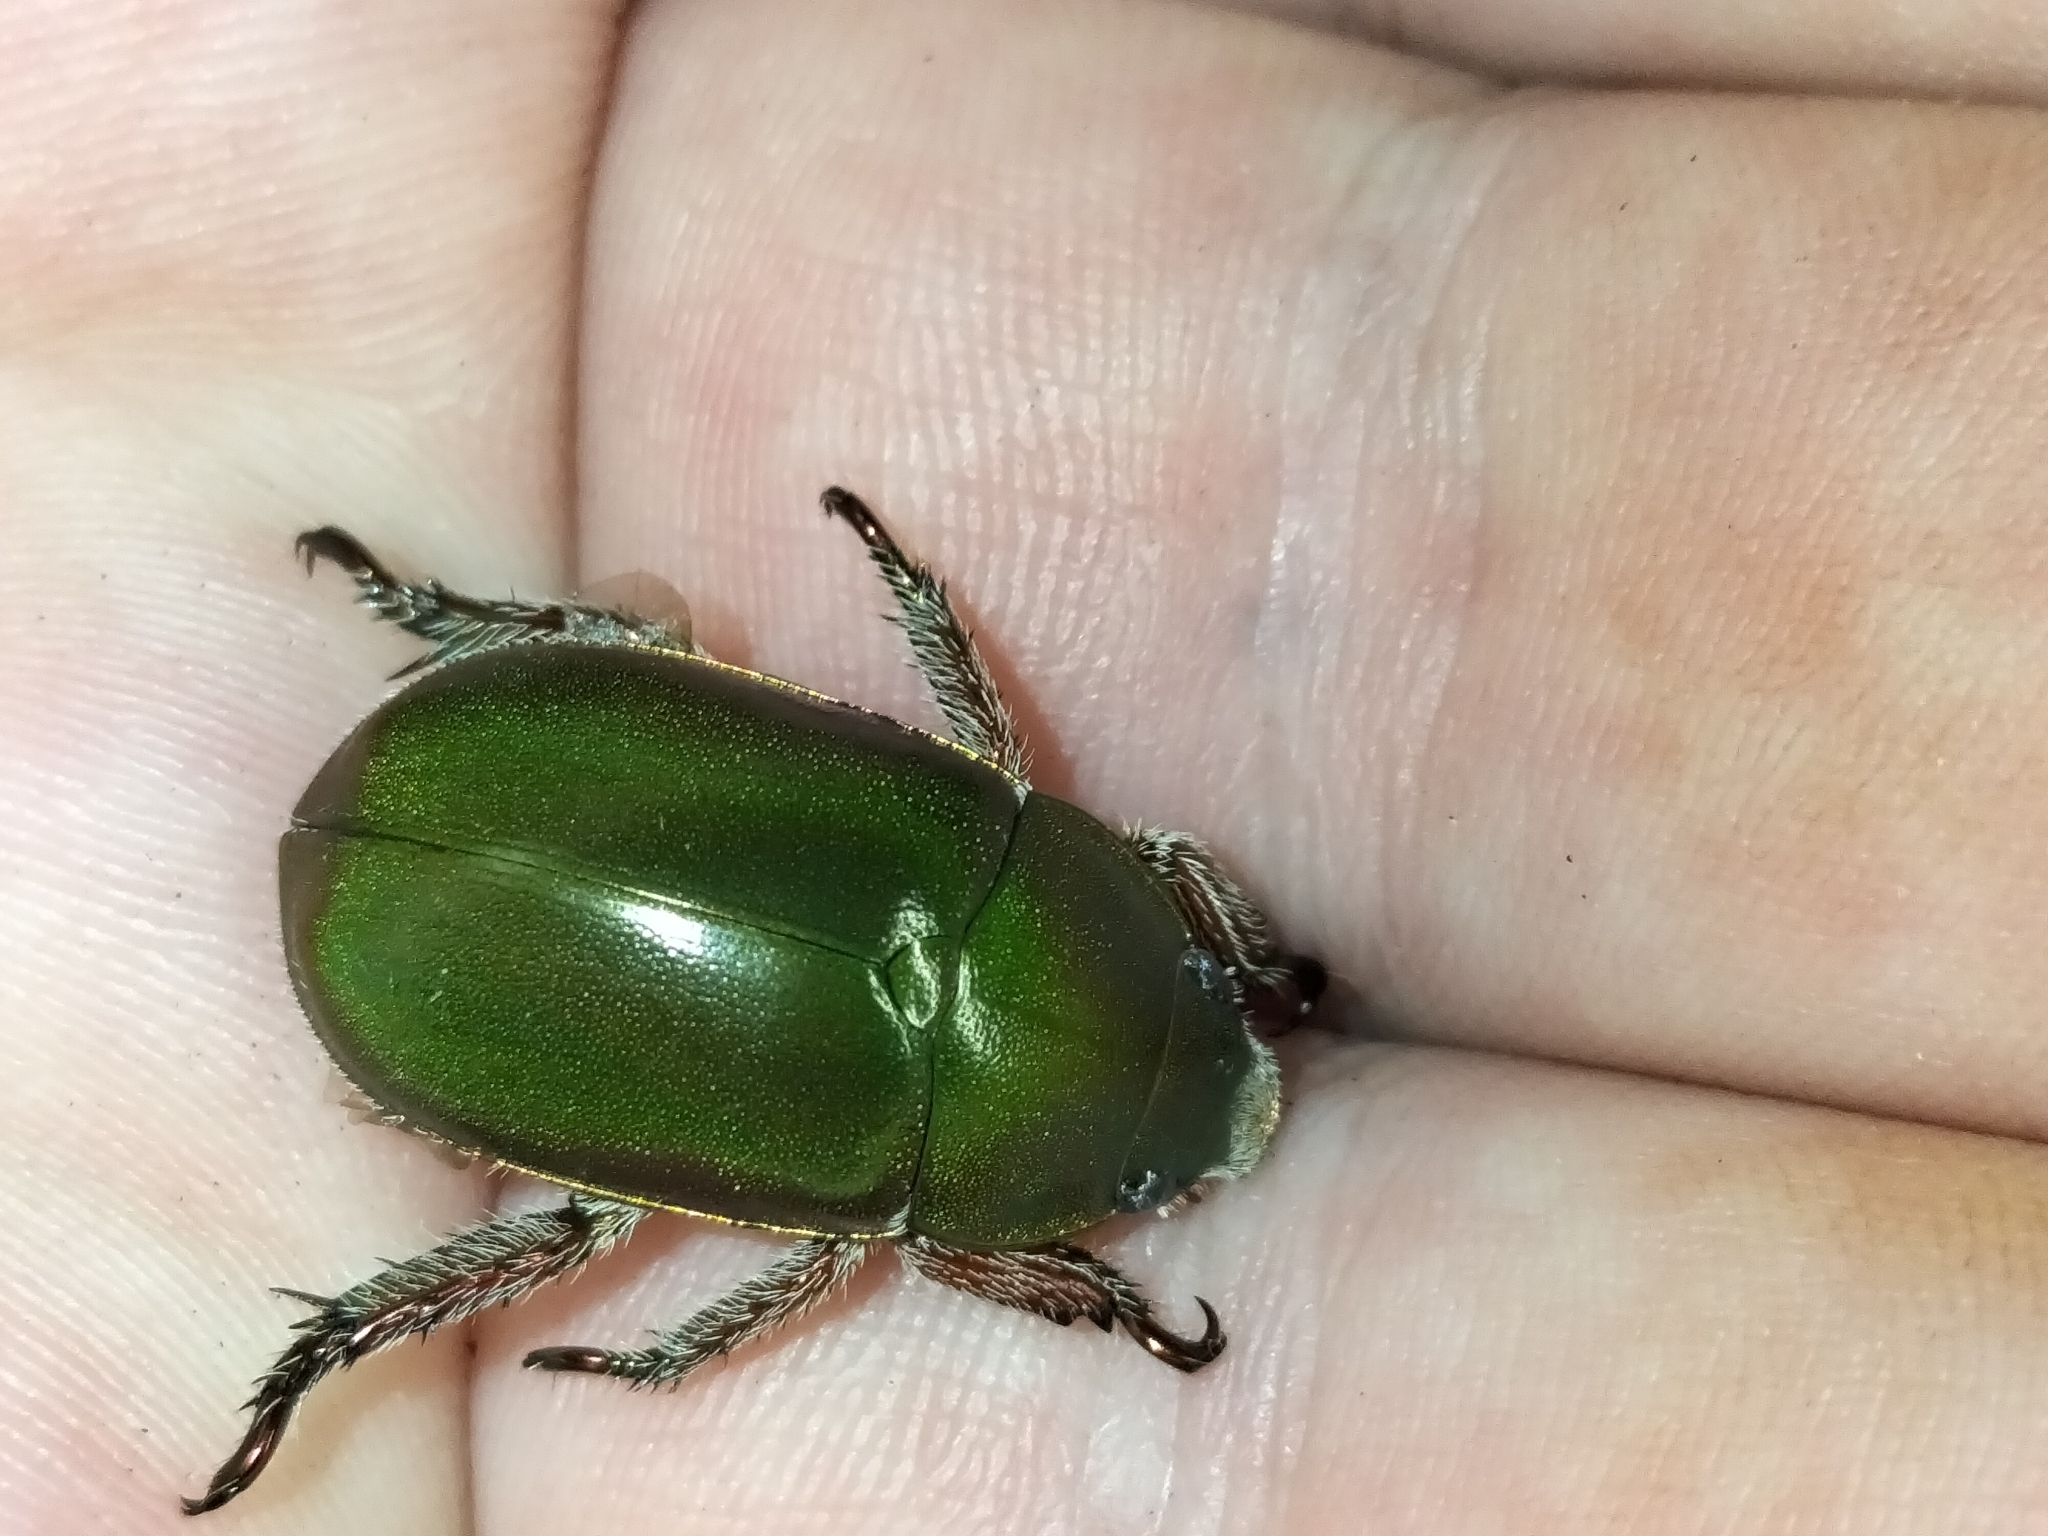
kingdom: Animalia
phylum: Arthropoda
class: Insecta
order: Coleoptera
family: Scarabaeidae
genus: Anoplognathus
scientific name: Anoplognathus punctulatus
